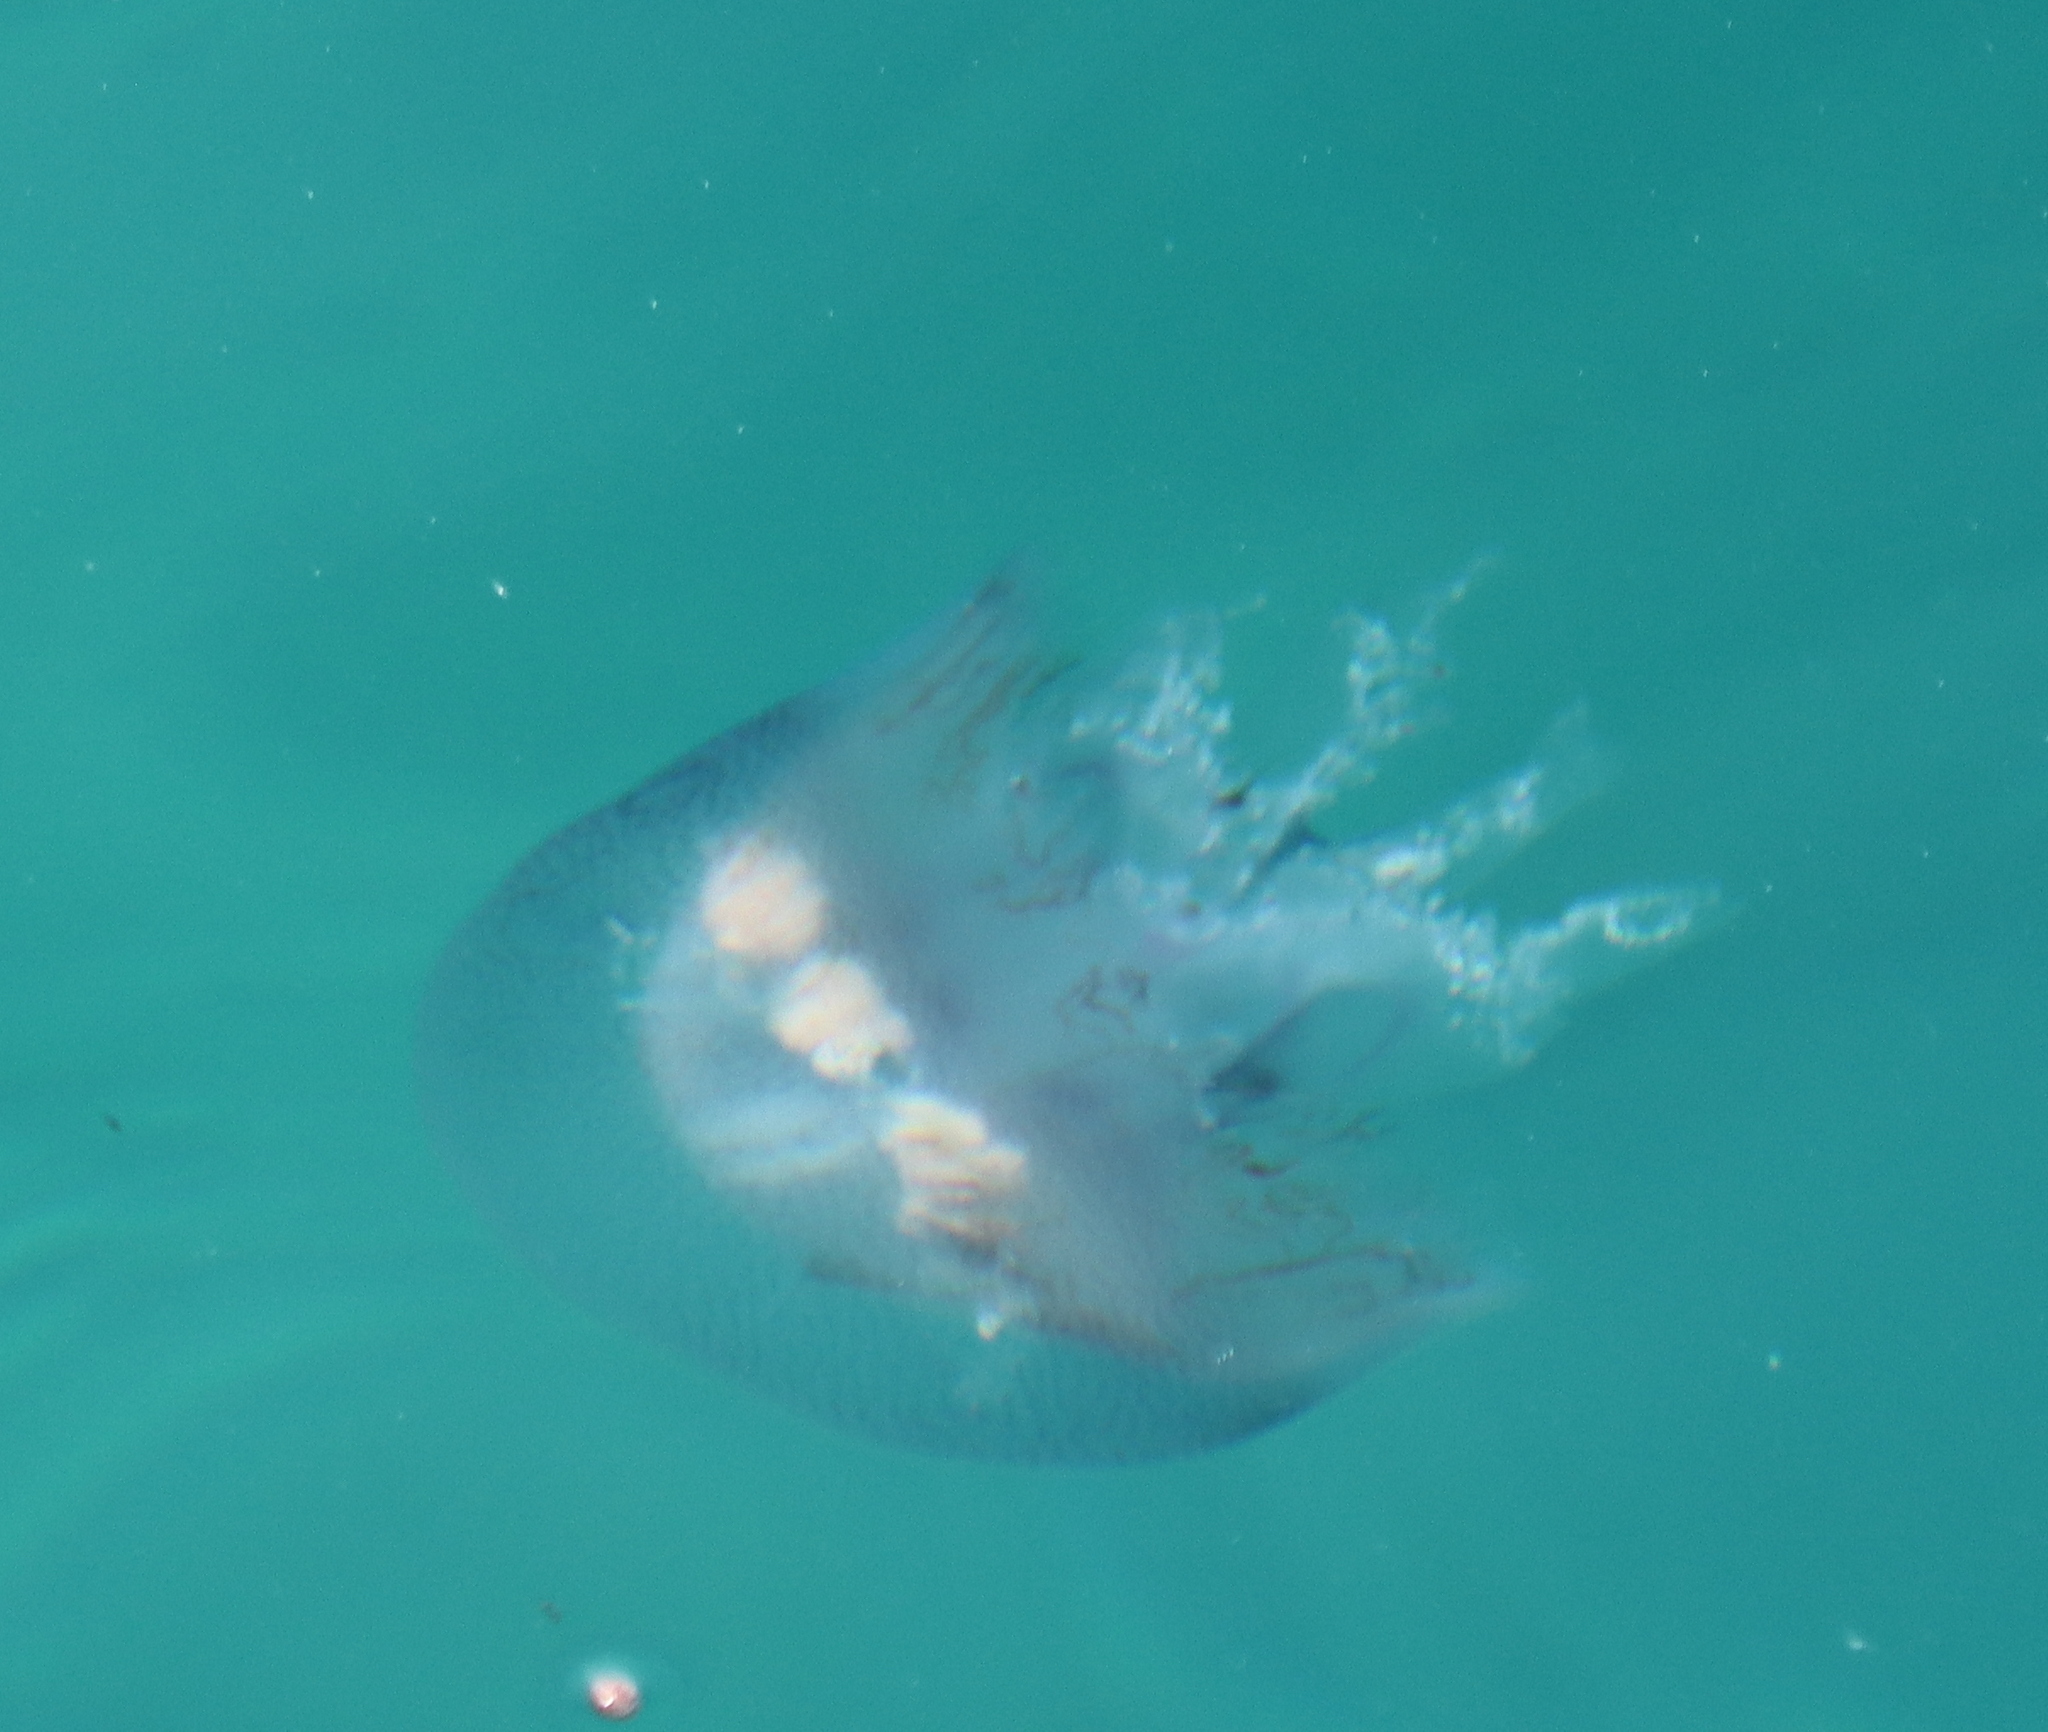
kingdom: Animalia
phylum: Cnidaria
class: Scyphozoa
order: Rhizostomeae
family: Lychnorhizidae
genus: Pseudorhiza
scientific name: Pseudorhiza haeckeli
